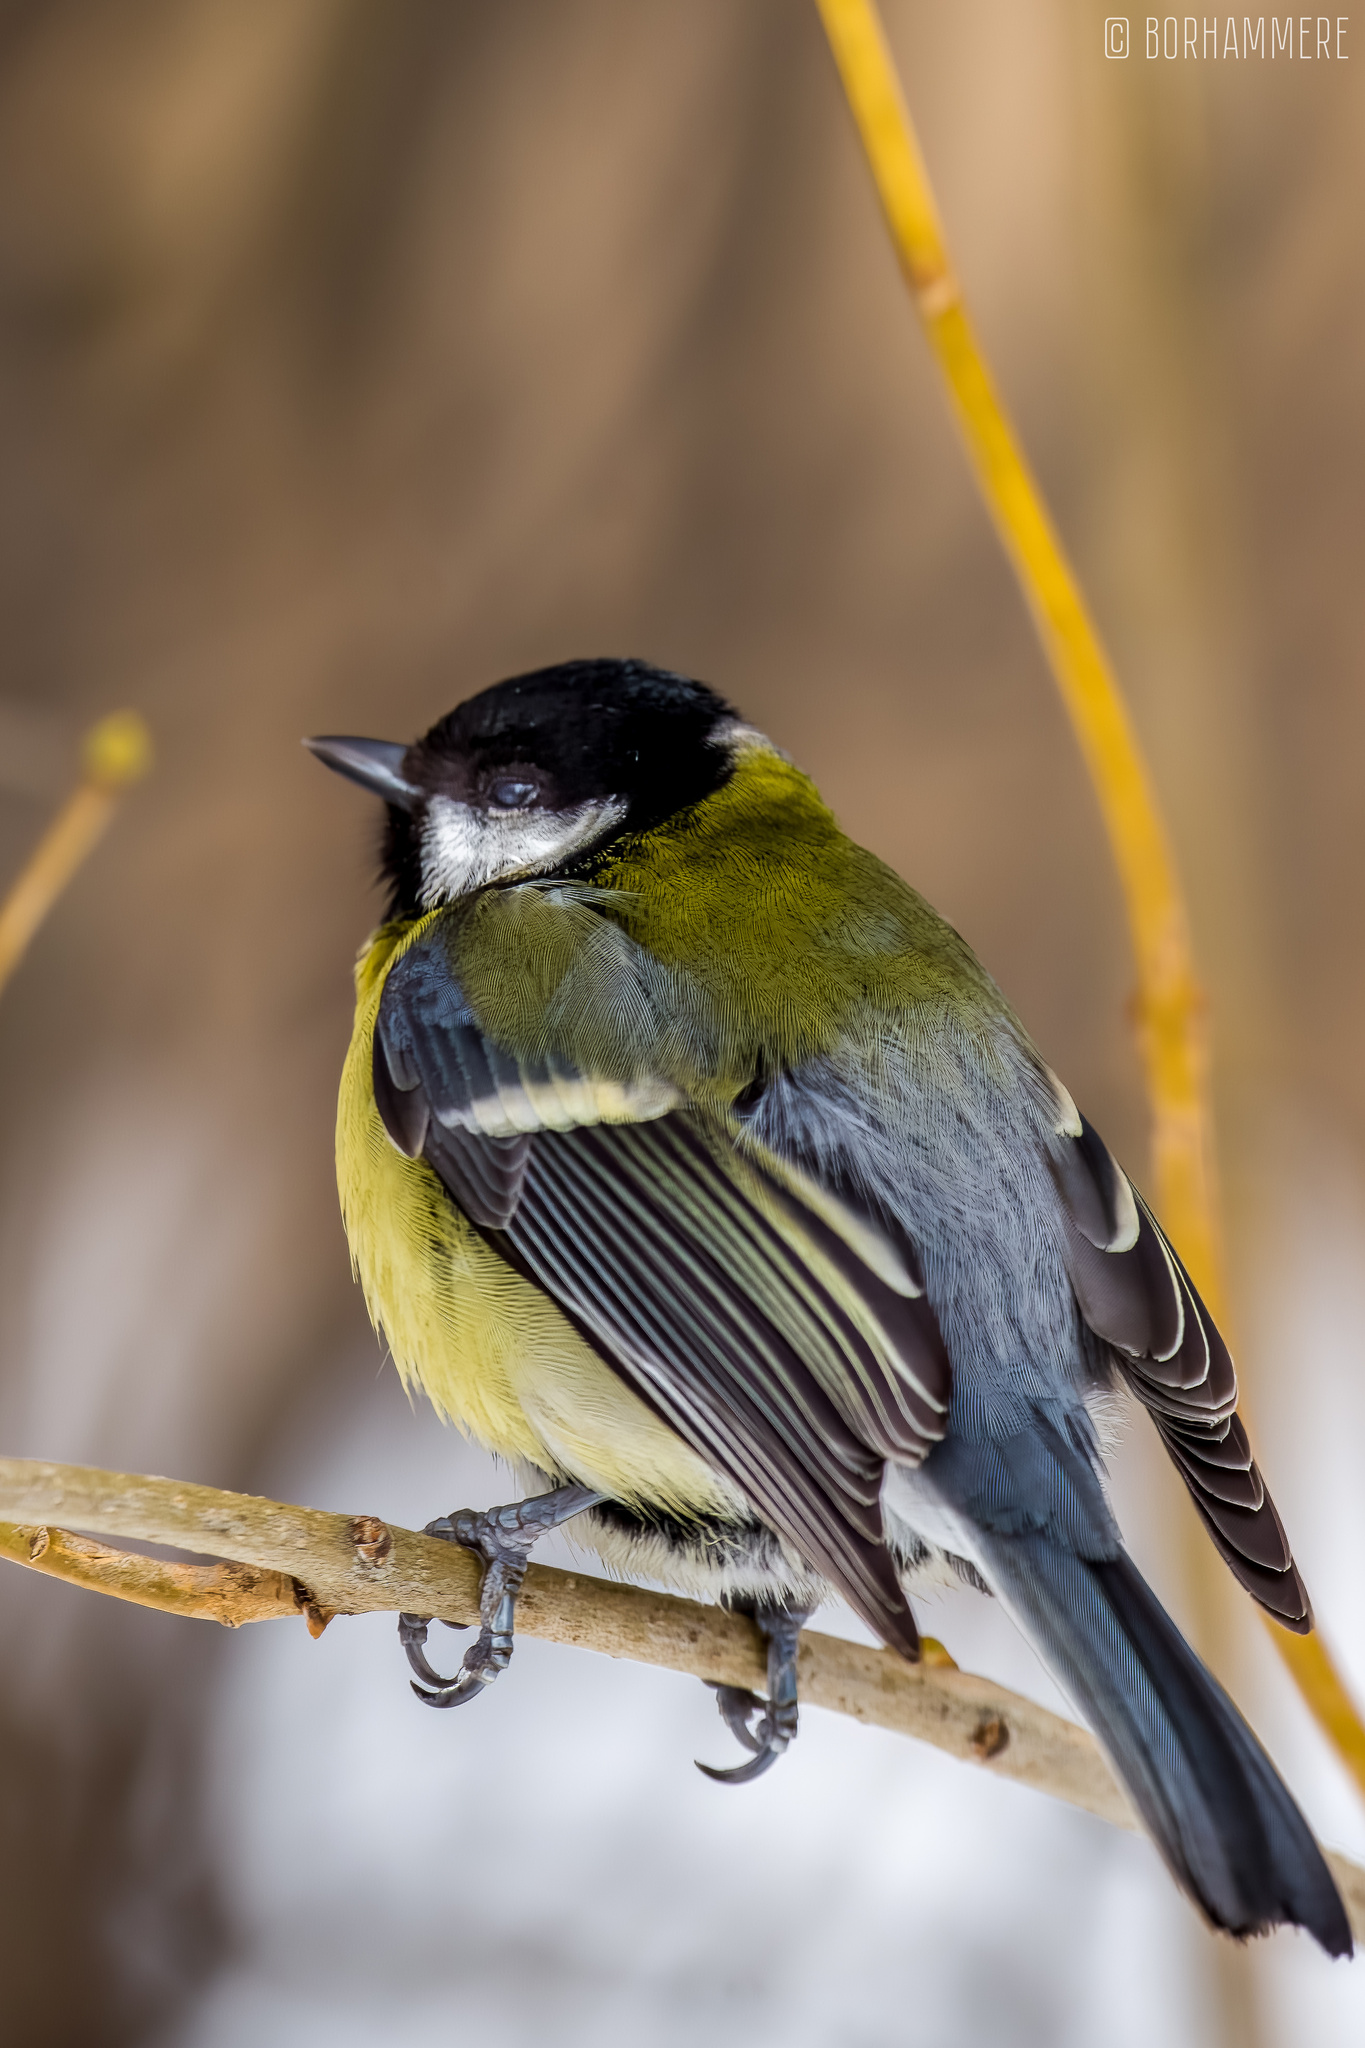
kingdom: Animalia
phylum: Chordata
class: Aves
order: Passeriformes
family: Paridae
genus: Parus
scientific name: Parus major
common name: Great tit
